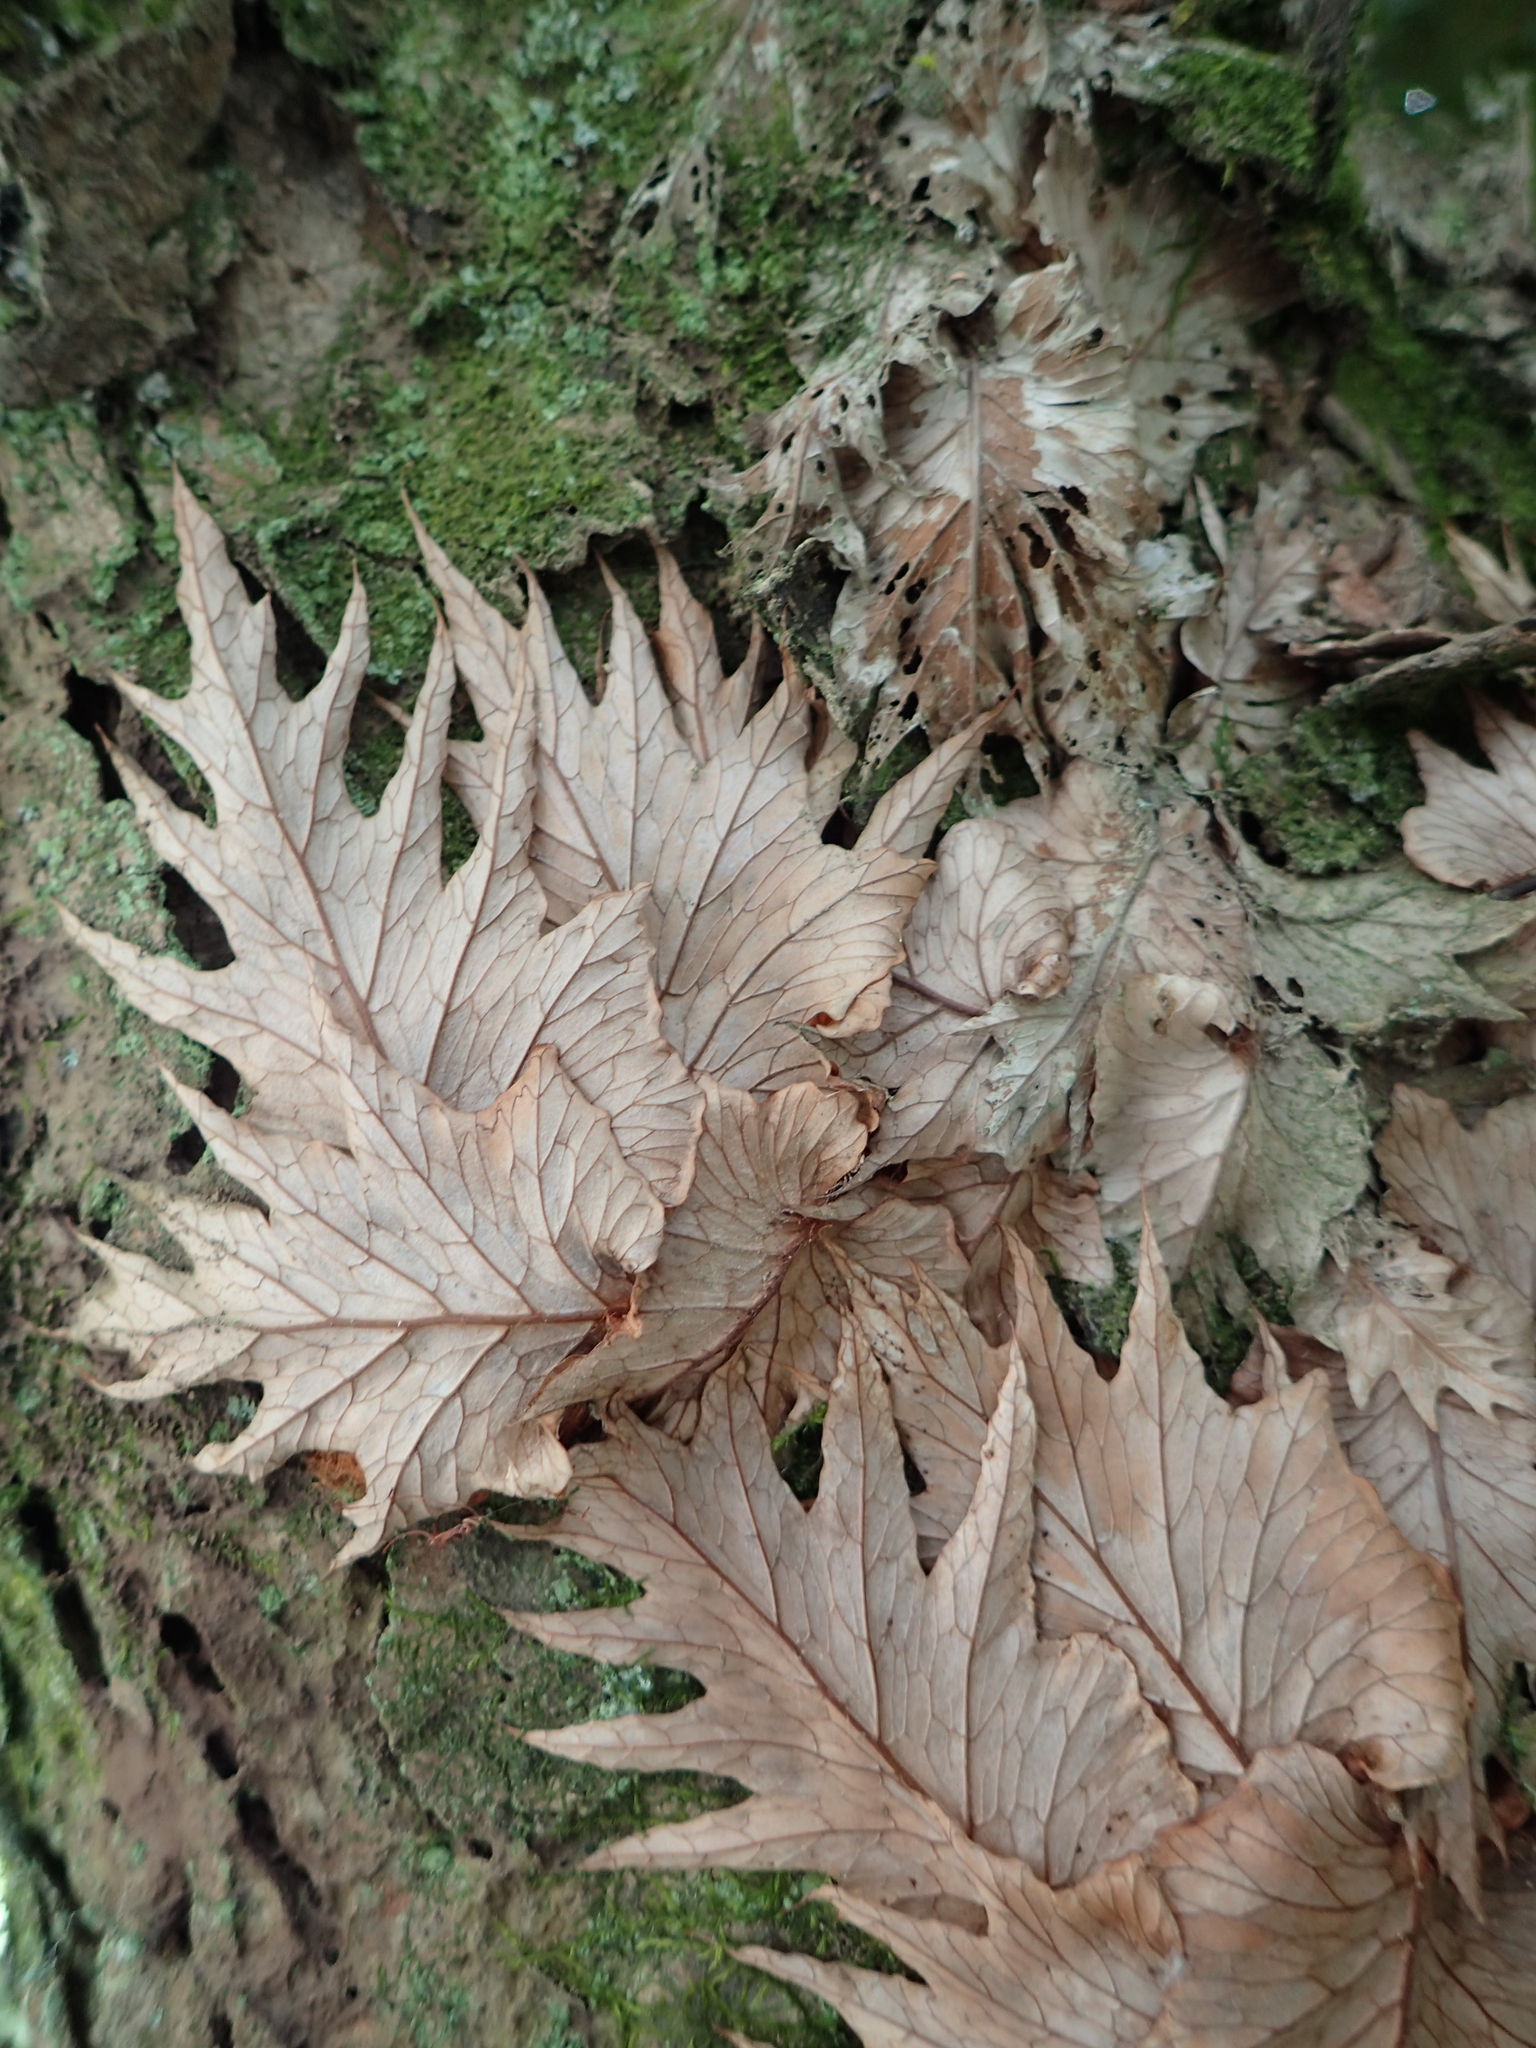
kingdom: Plantae
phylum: Tracheophyta
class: Polypodiopsida
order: Polypodiales
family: Polypodiaceae
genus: Drynaria
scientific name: Drynaria roosii
